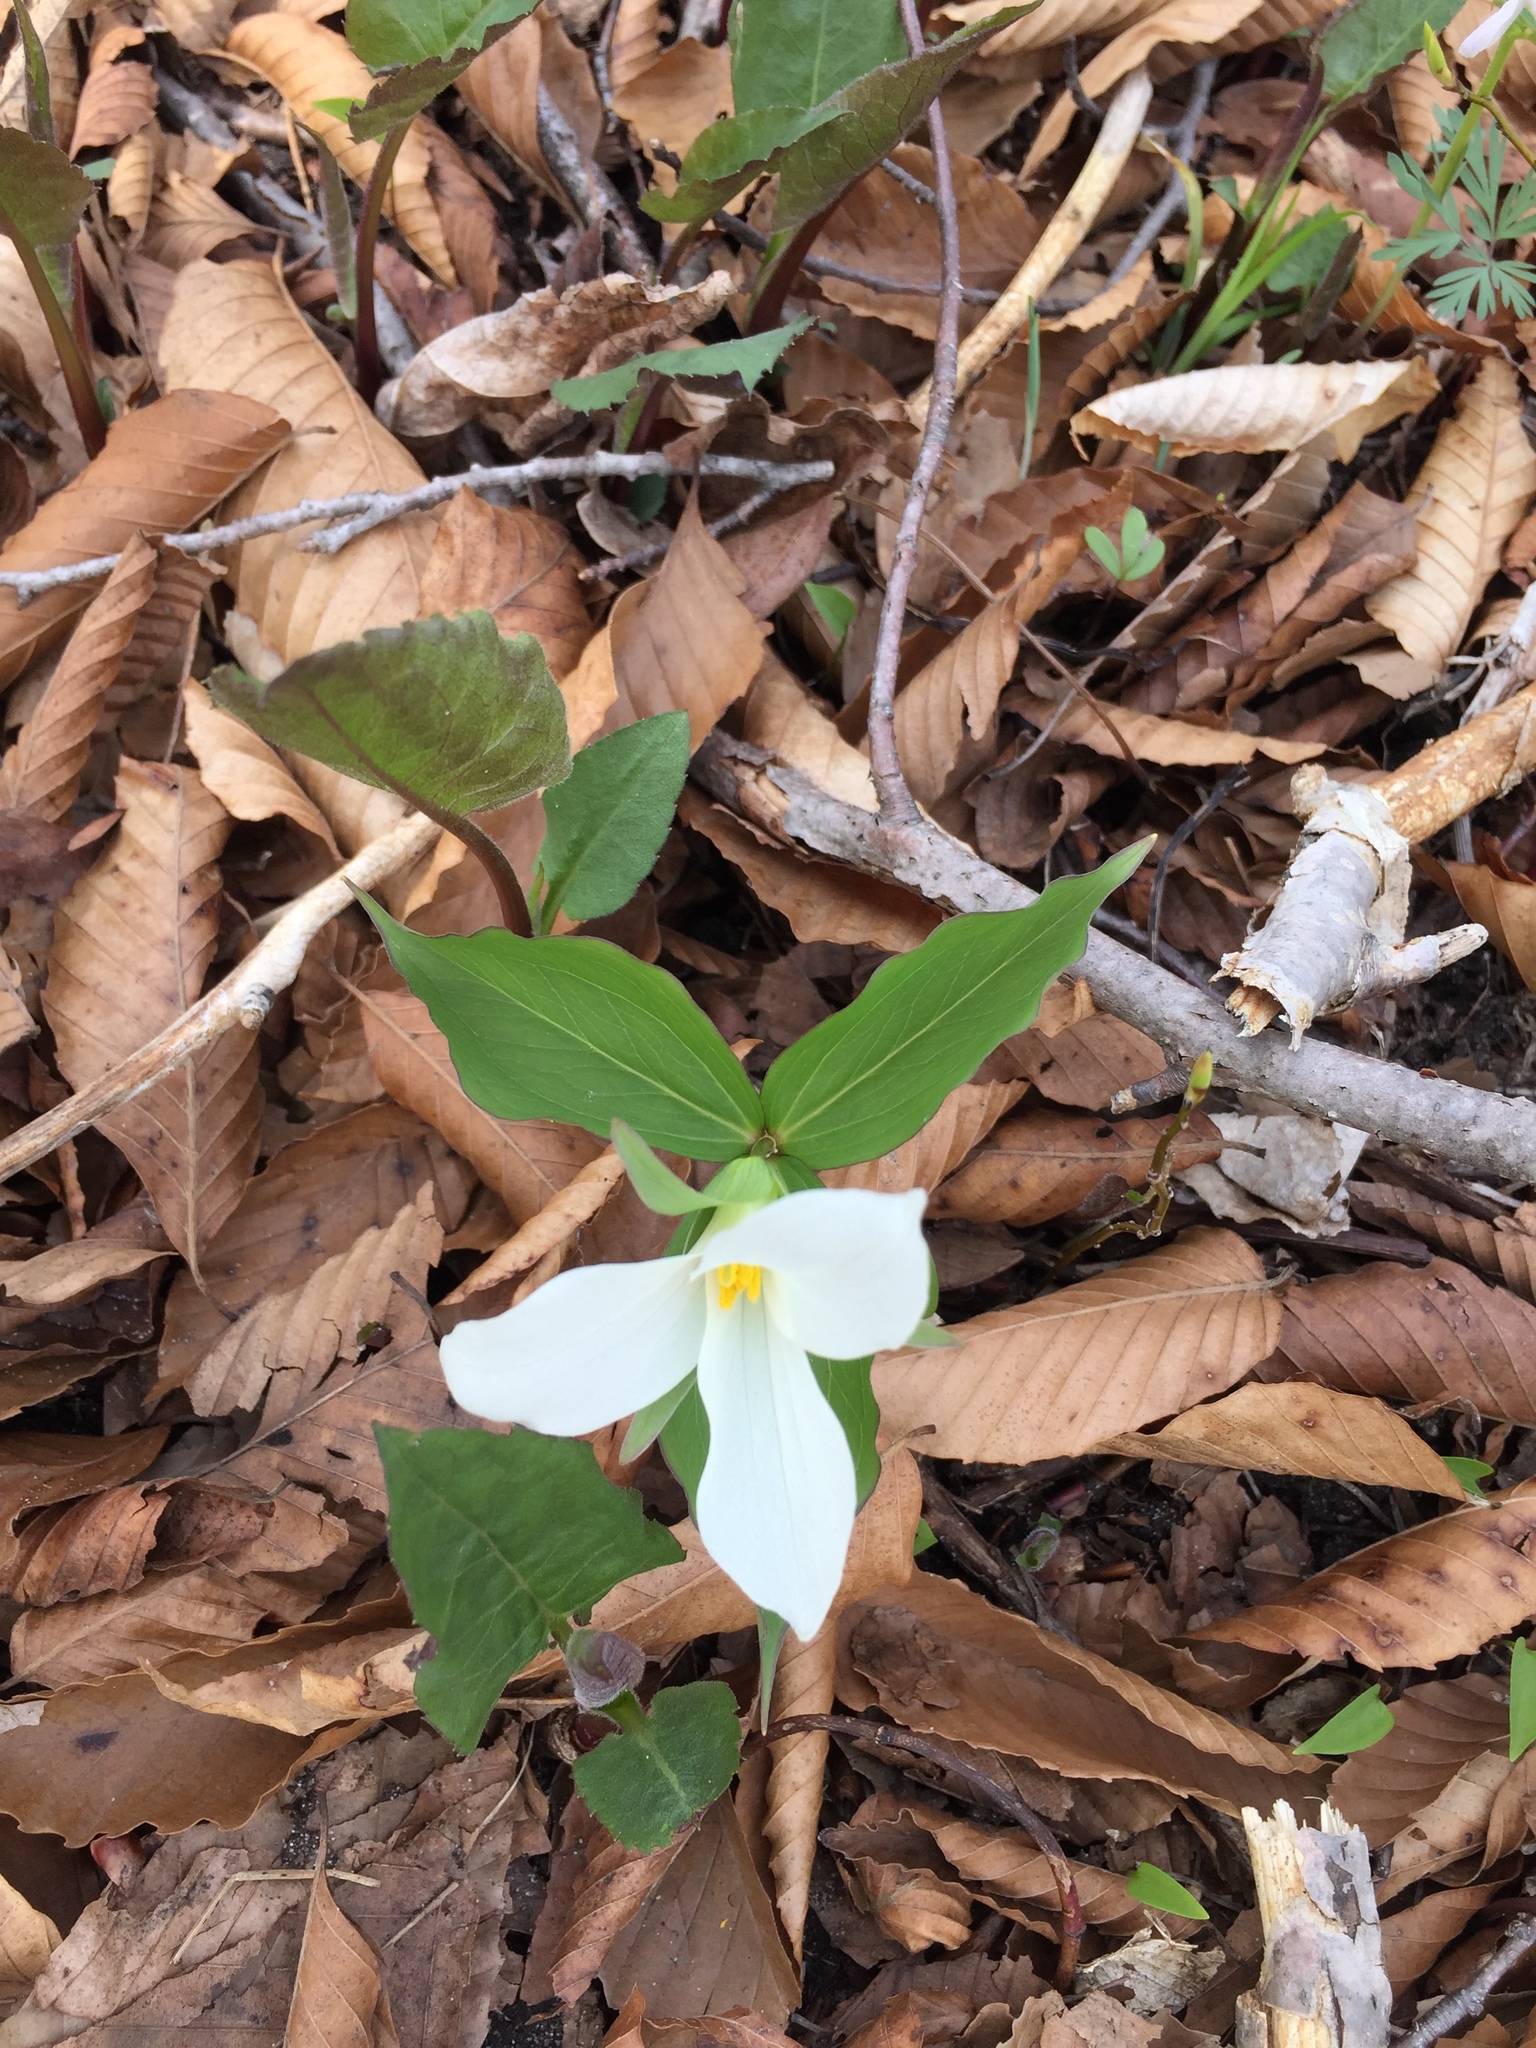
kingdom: Plantae
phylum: Tracheophyta
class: Liliopsida
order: Liliales
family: Melanthiaceae
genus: Trillium
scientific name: Trillium grandiflorum
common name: Great white trillium
